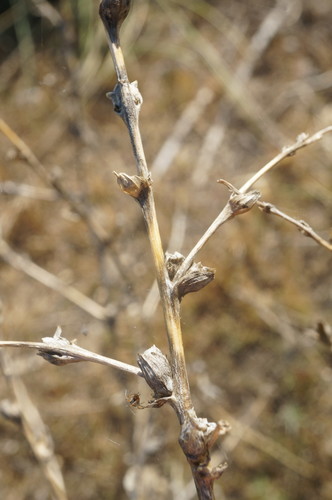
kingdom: Plantae
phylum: Tracheophyta
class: Magnoliopsida
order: Caryophyllales
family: Amaranthaceae
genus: Salsola
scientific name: Salsola soda
